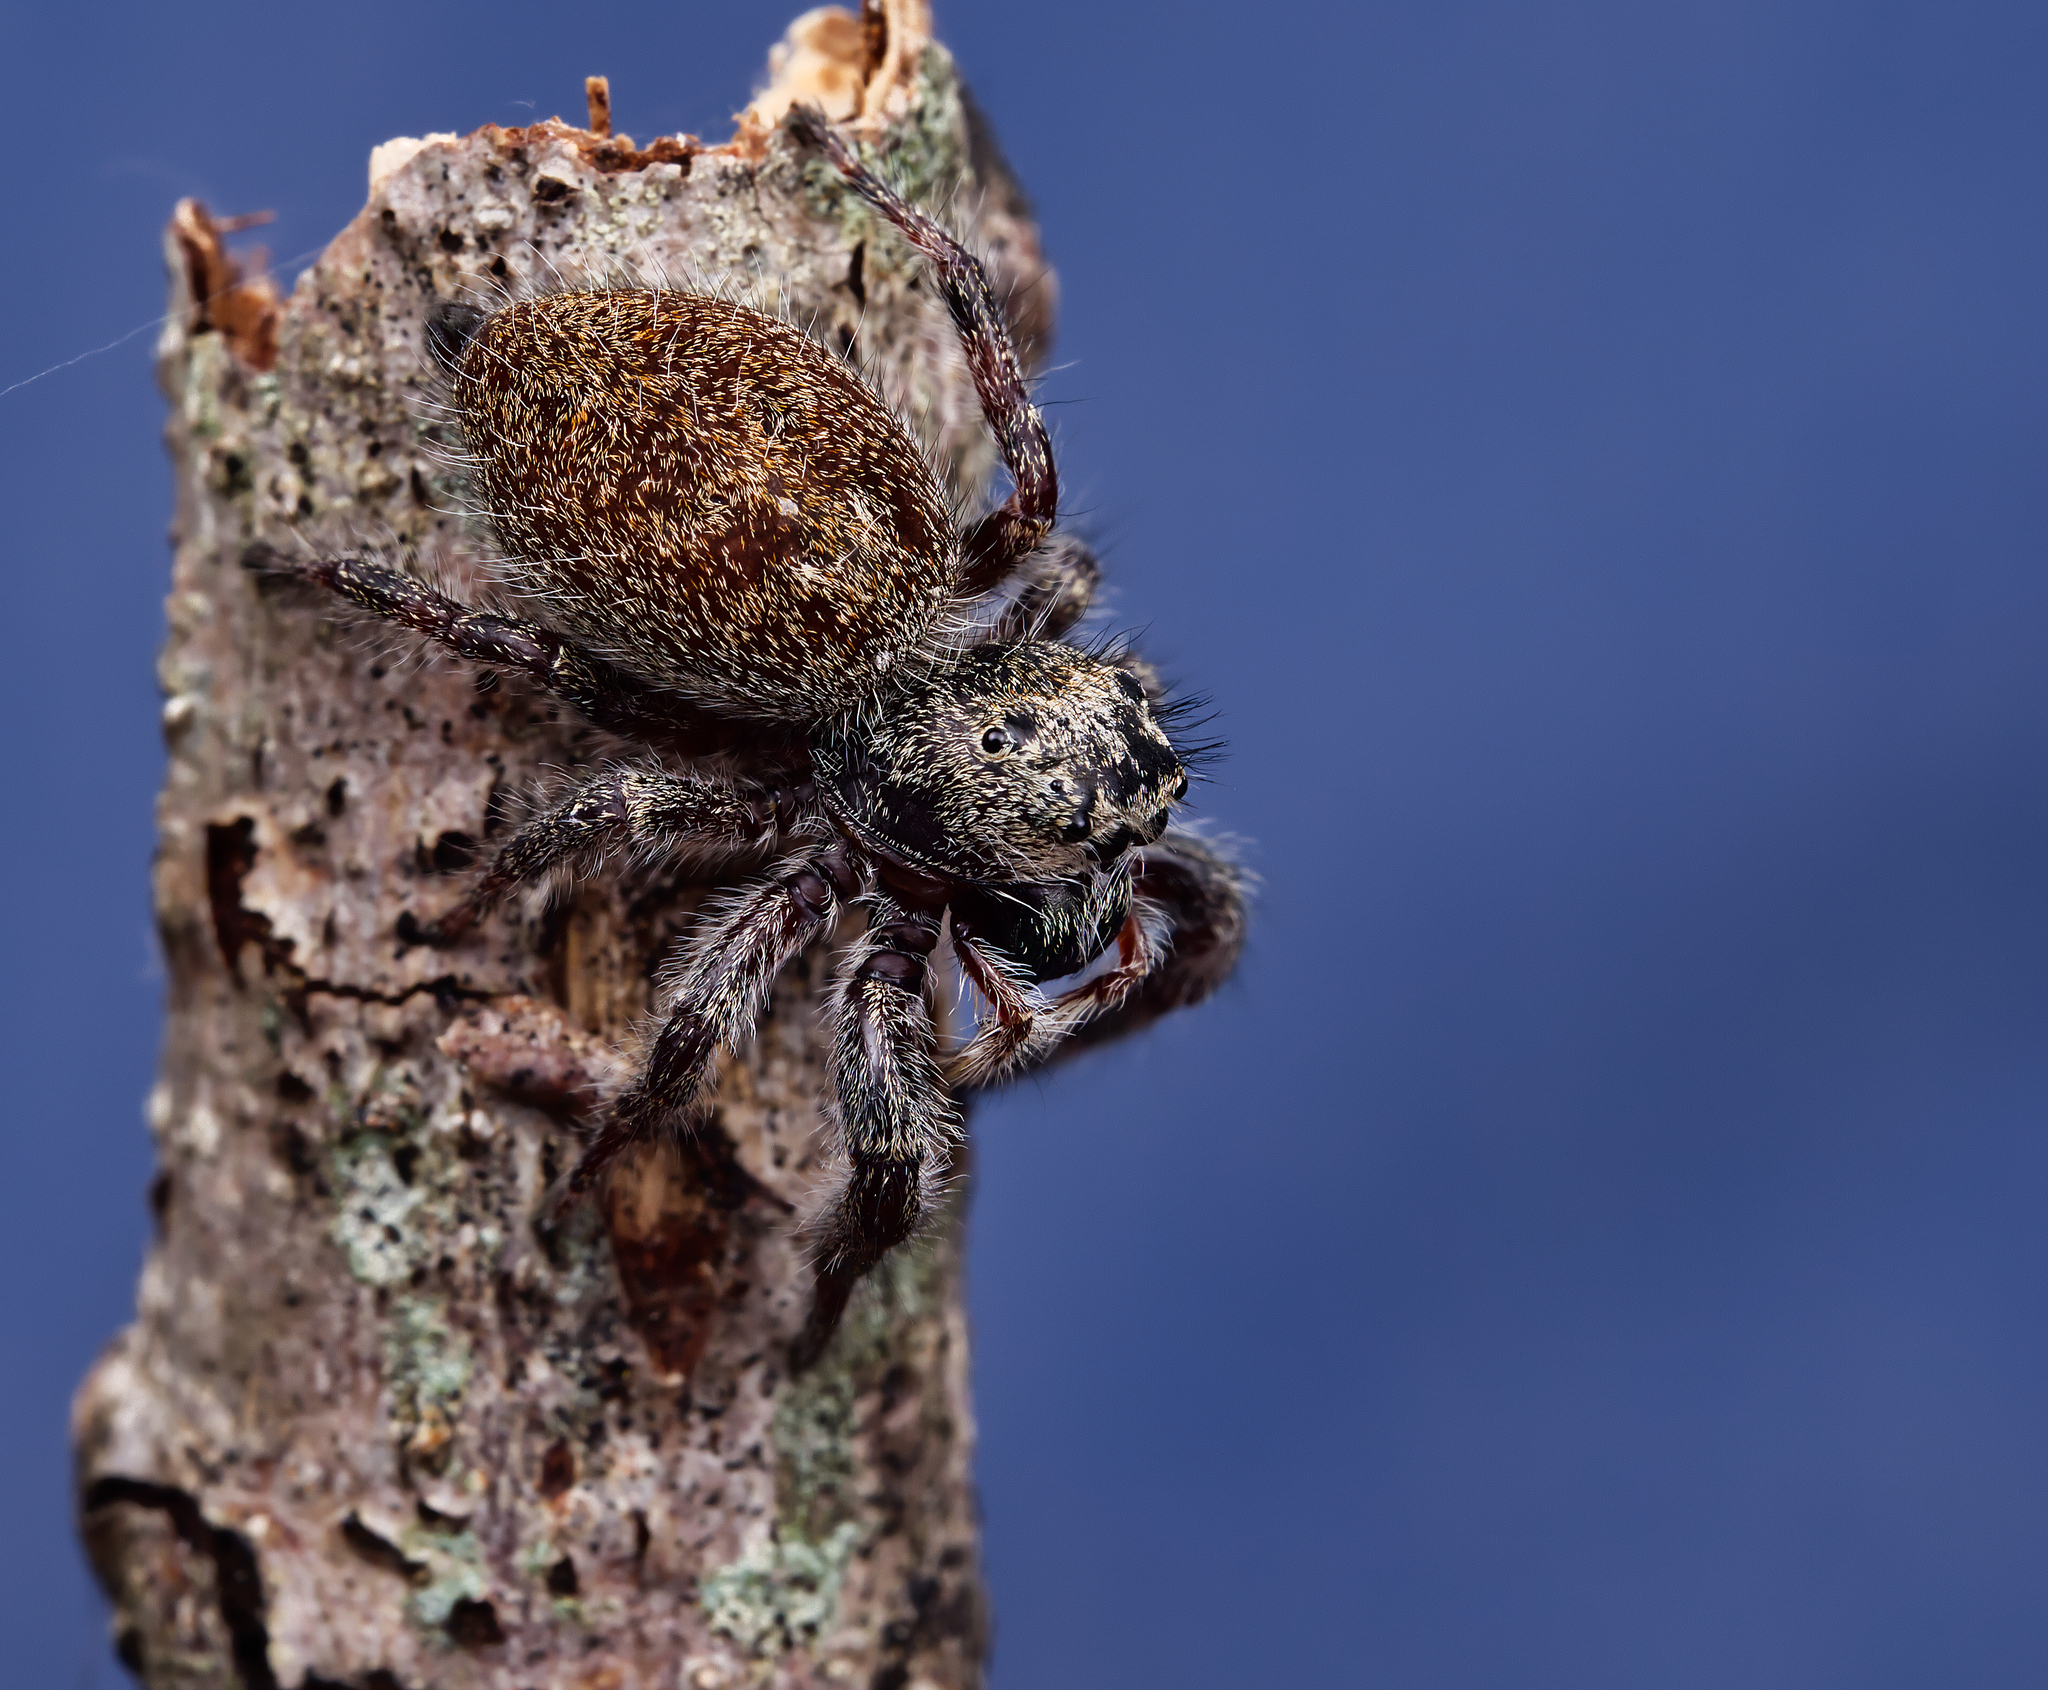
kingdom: Animalia
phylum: Arthropoda
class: Arachnida
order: Araneae
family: Salticidae
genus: Phidippus
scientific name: Phidippus princeps
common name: Grayish jumping spider
